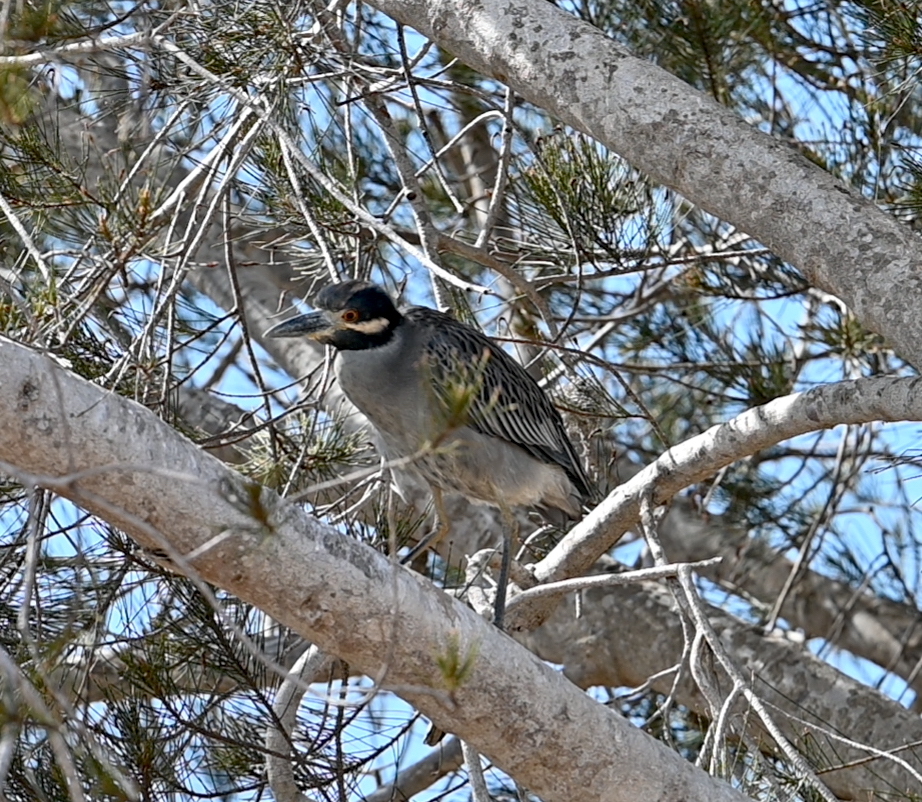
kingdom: Animalia
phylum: Chordata
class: Aves
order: Pelecaniformes
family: Ardeidae
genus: Nyctanassa
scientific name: Nyctanassa violacea
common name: Yellow-crowned night heron
